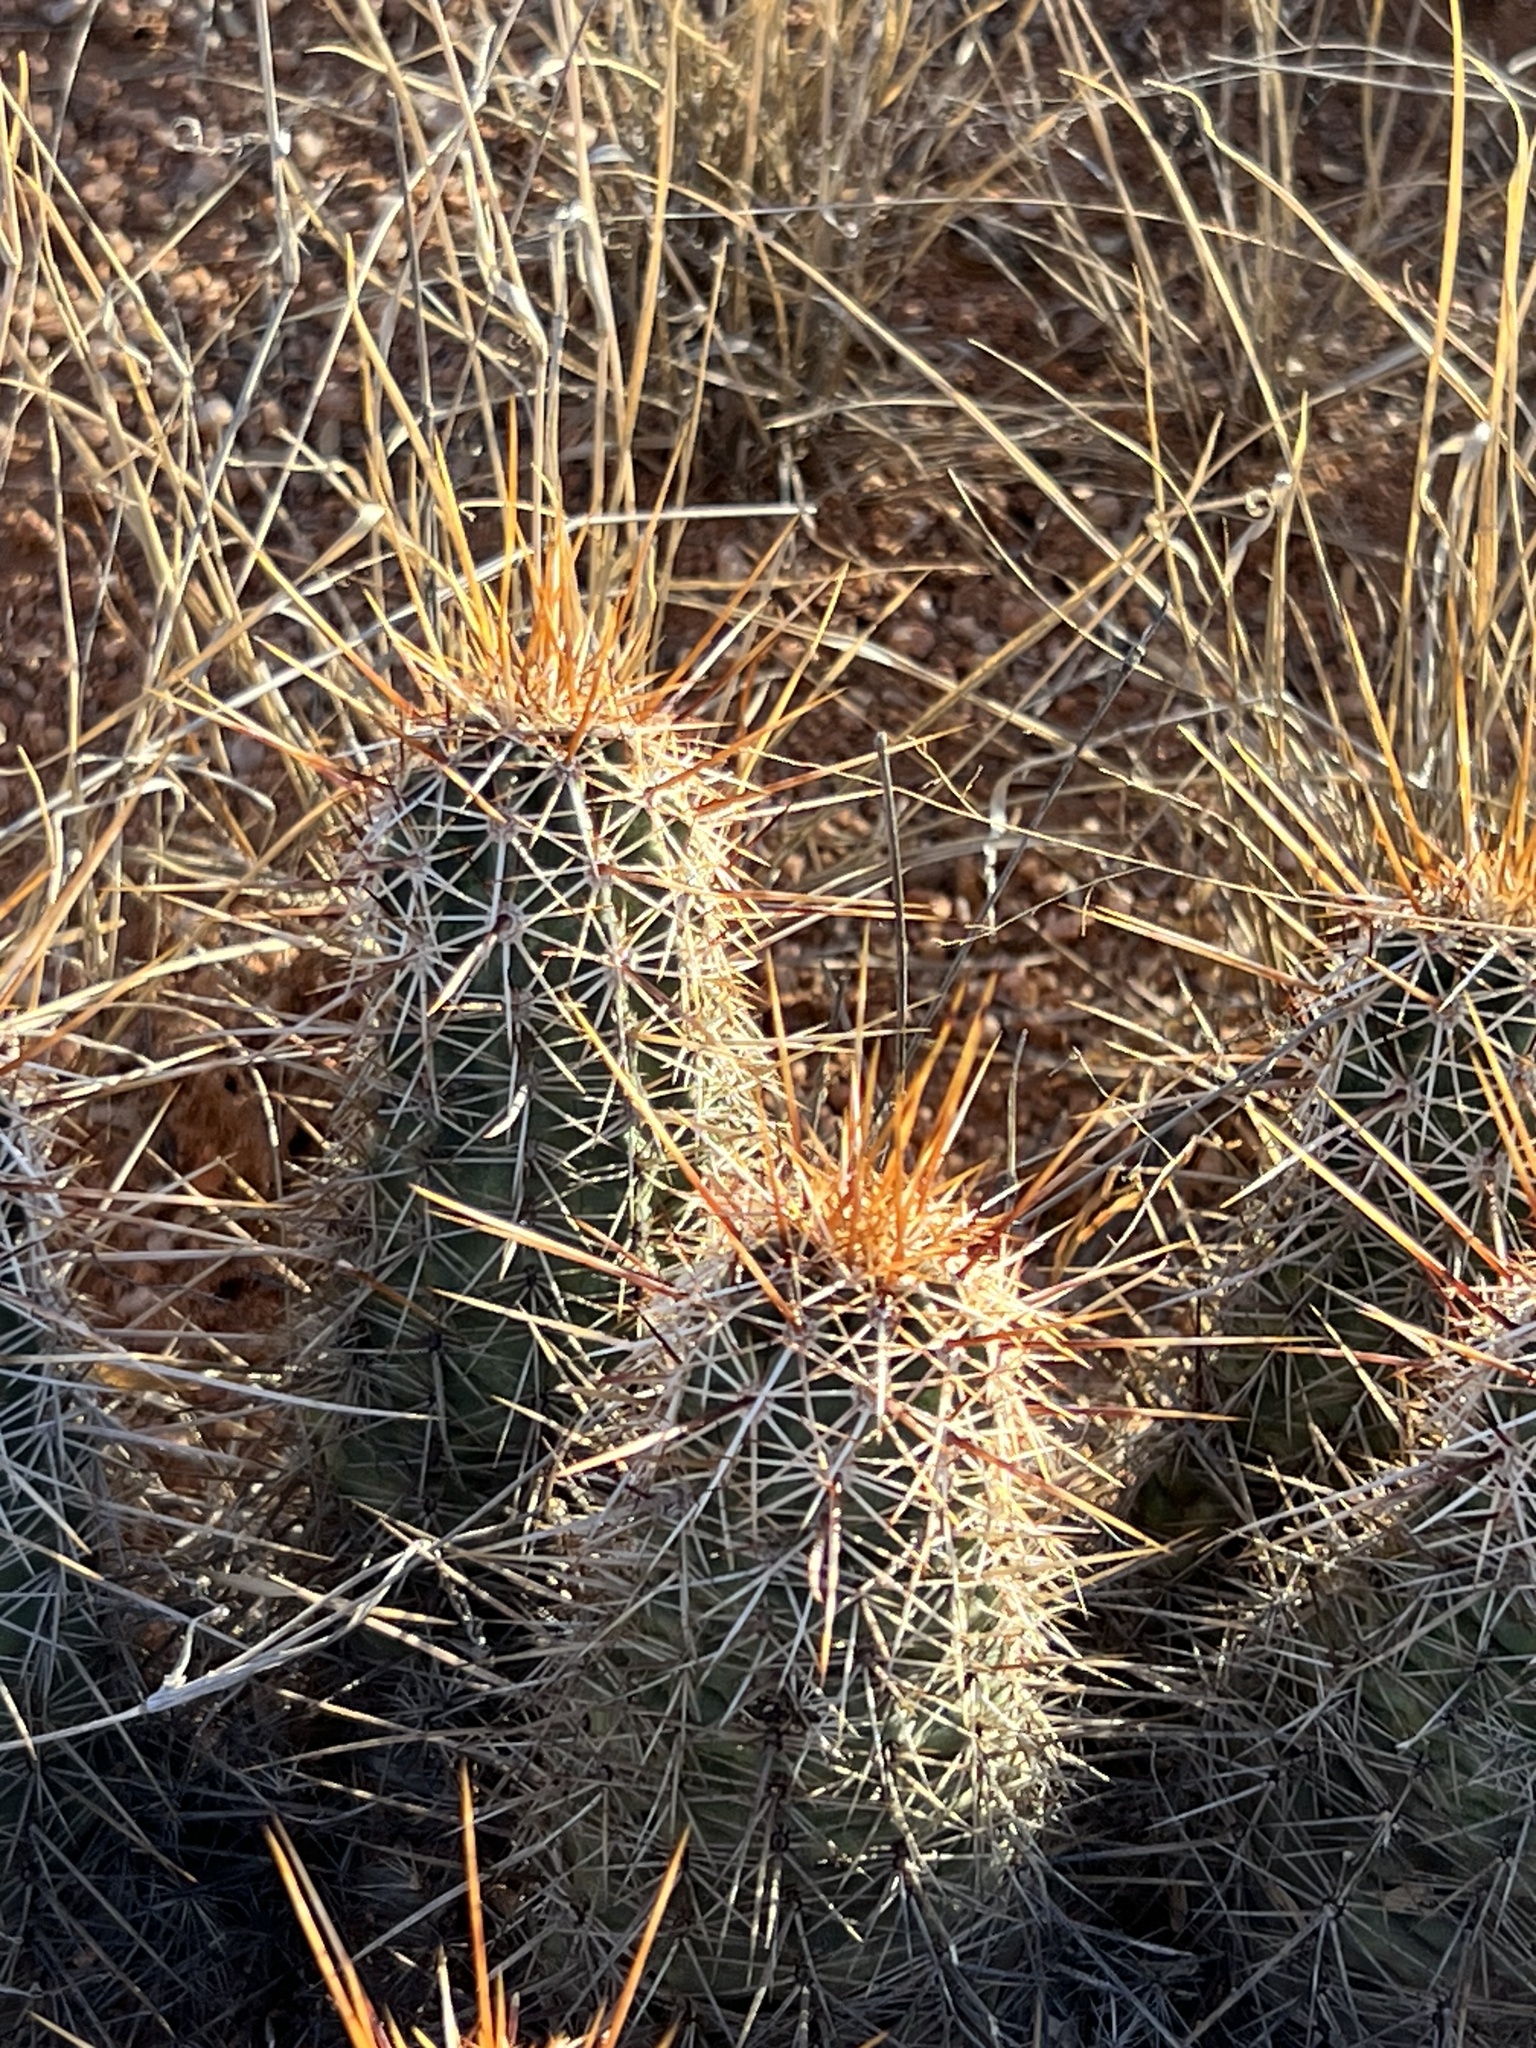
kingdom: Plantae
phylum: Tracheophyta
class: Magnoliopsida
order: Caryophyllales
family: Cactaceae
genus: Echinocereus
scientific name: Echinocereus fasciculatus
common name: Bundle hedgehog
